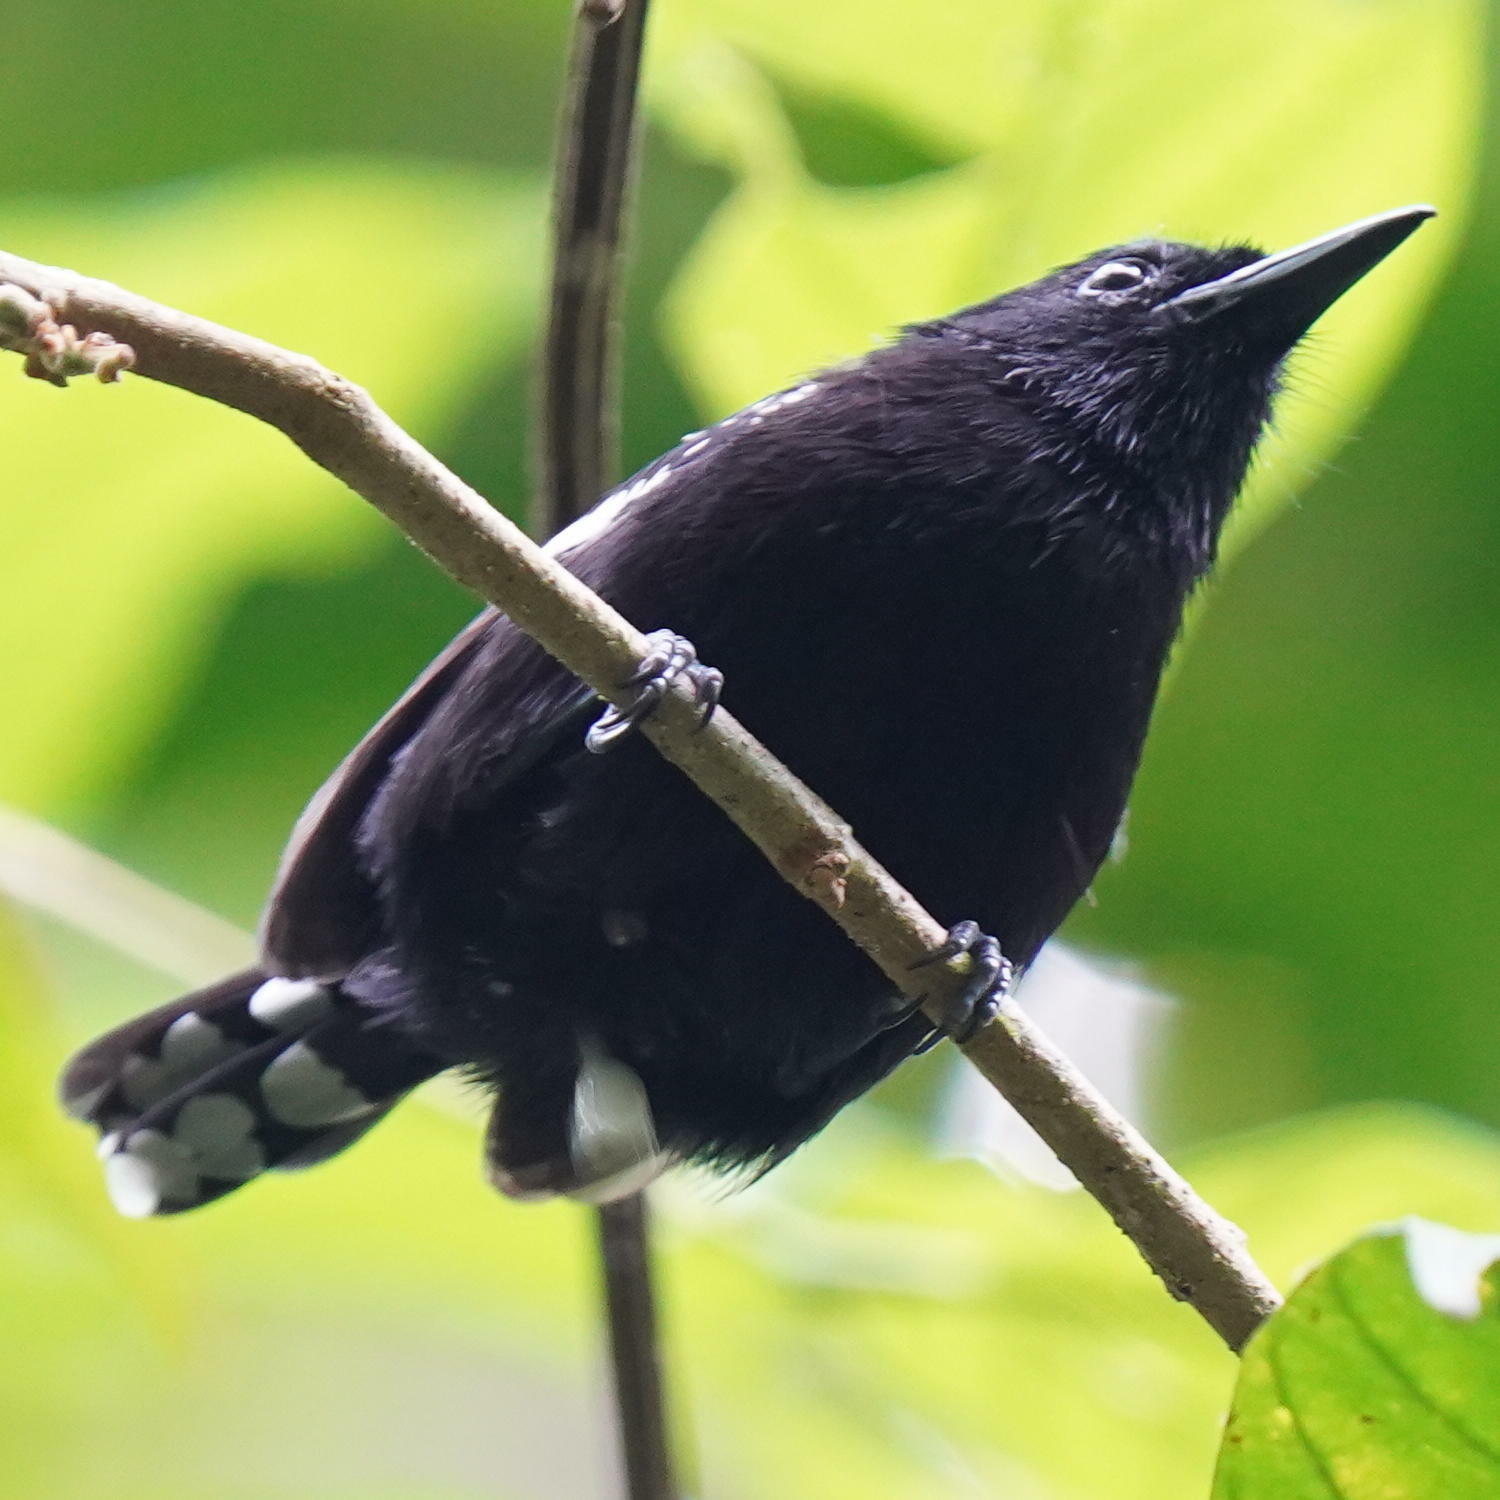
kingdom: Animalia
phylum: Chordata
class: Aves
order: Passeriformes
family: Thamnophilidae
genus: Microrhopias
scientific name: Microrhopias quixensis
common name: Dot-winged antwren
